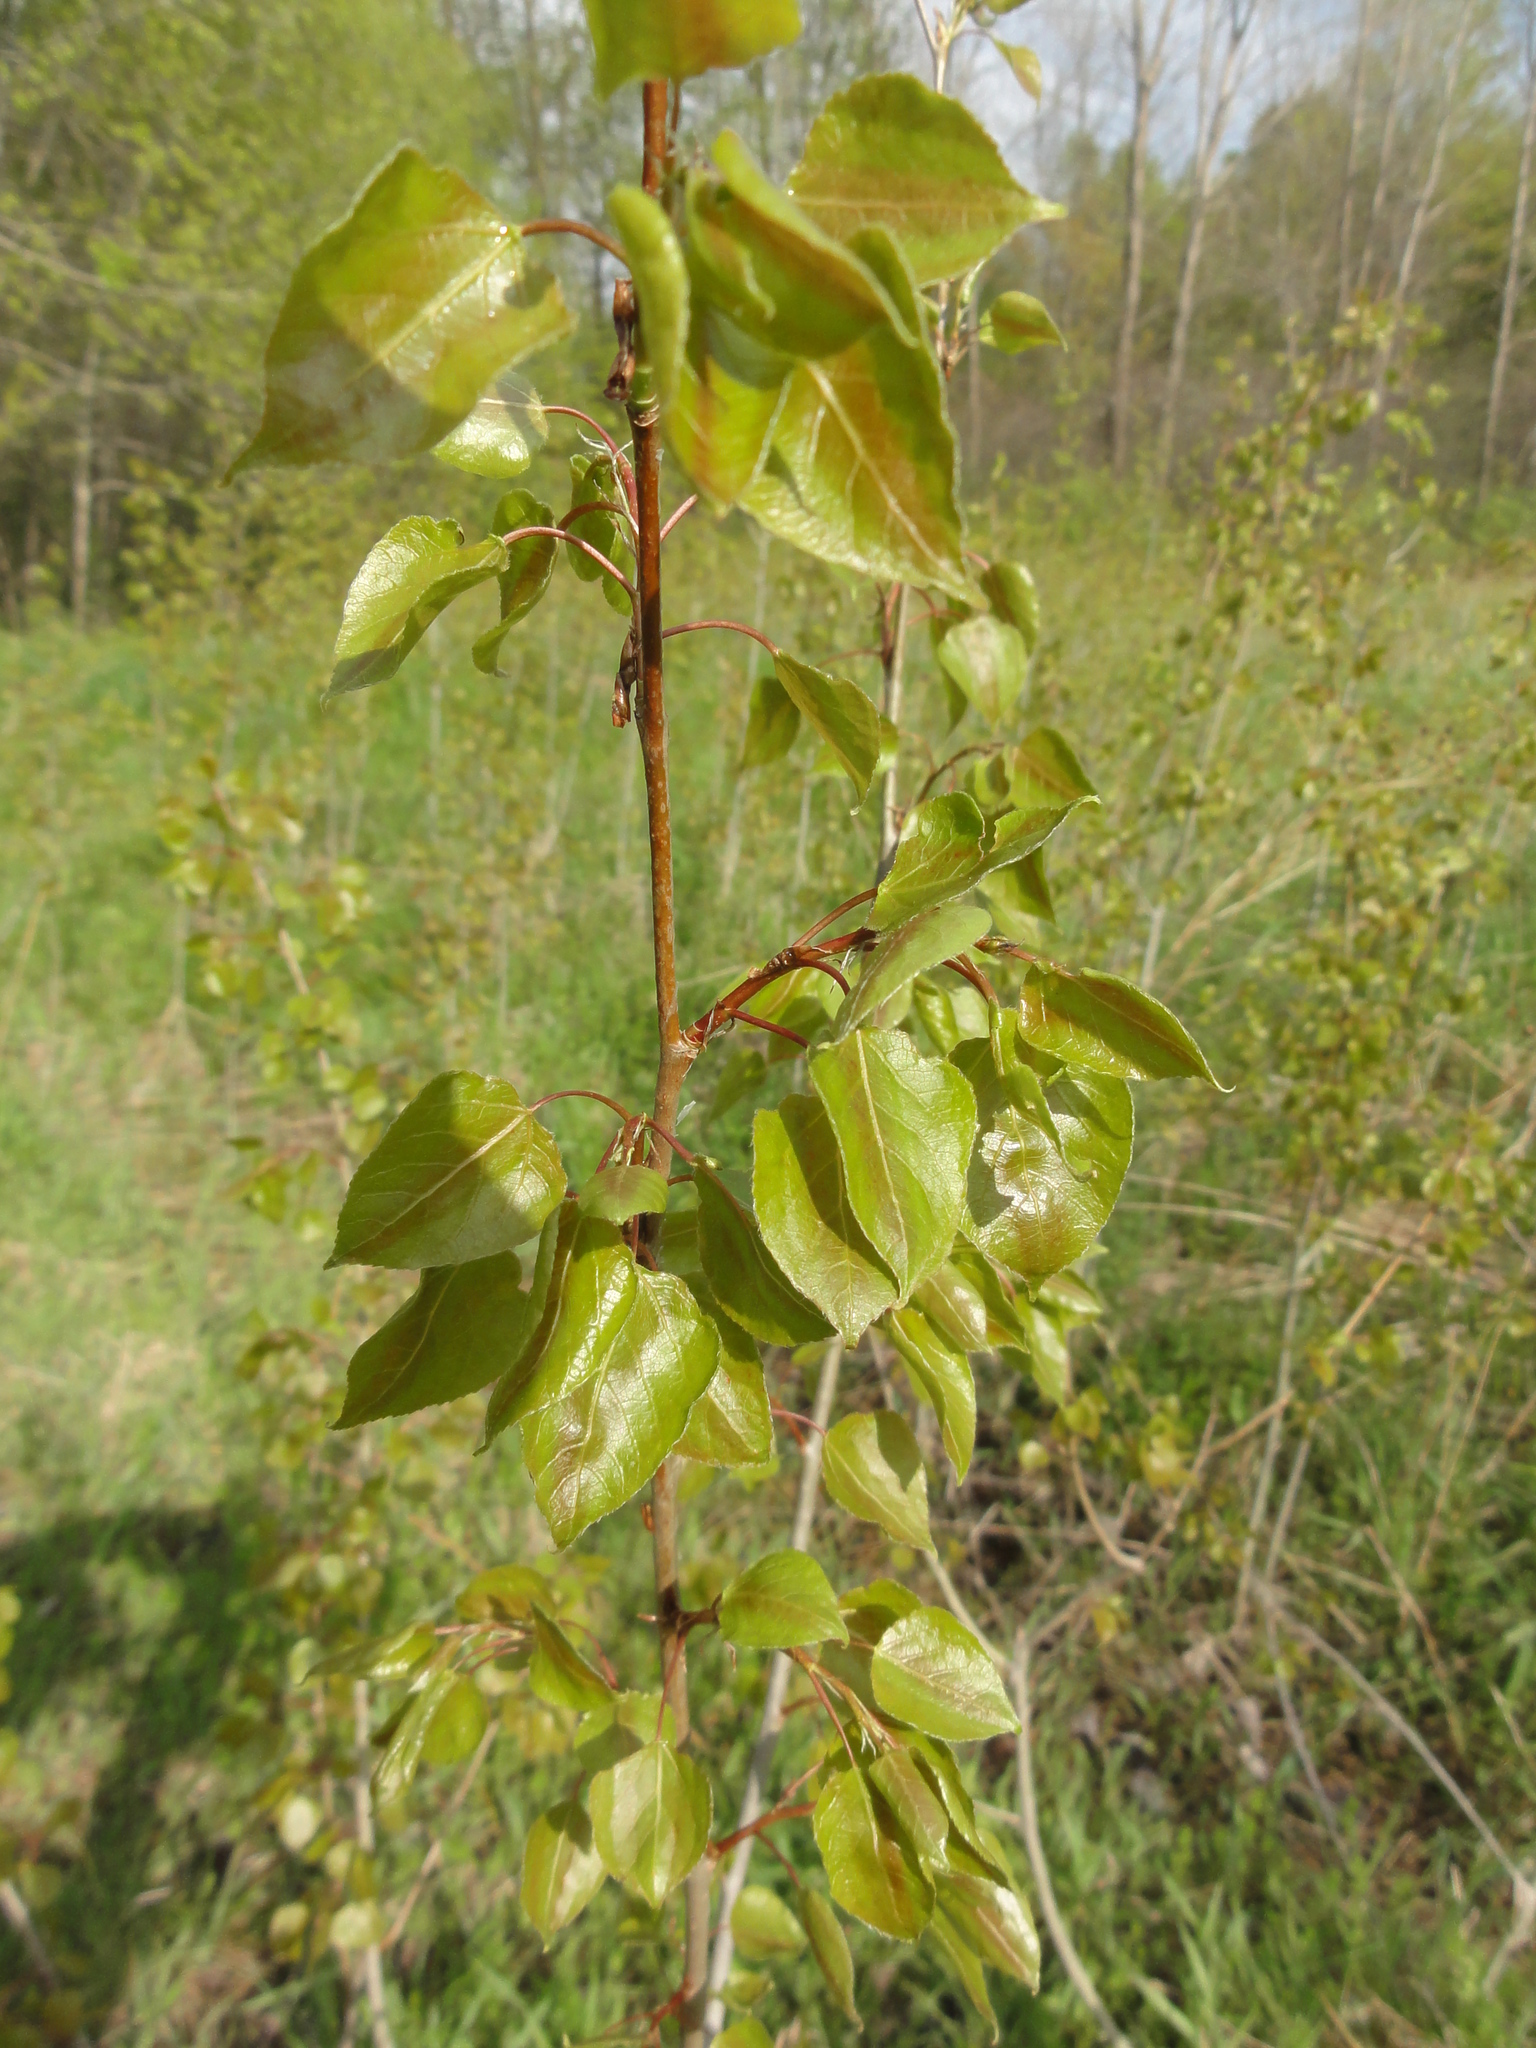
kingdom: Plantae
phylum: Tracheophyta
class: Magnoliopsida
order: Malpighiales
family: Salicaceae
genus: Populus
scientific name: Populus tremuloides
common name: Quaking aspen
